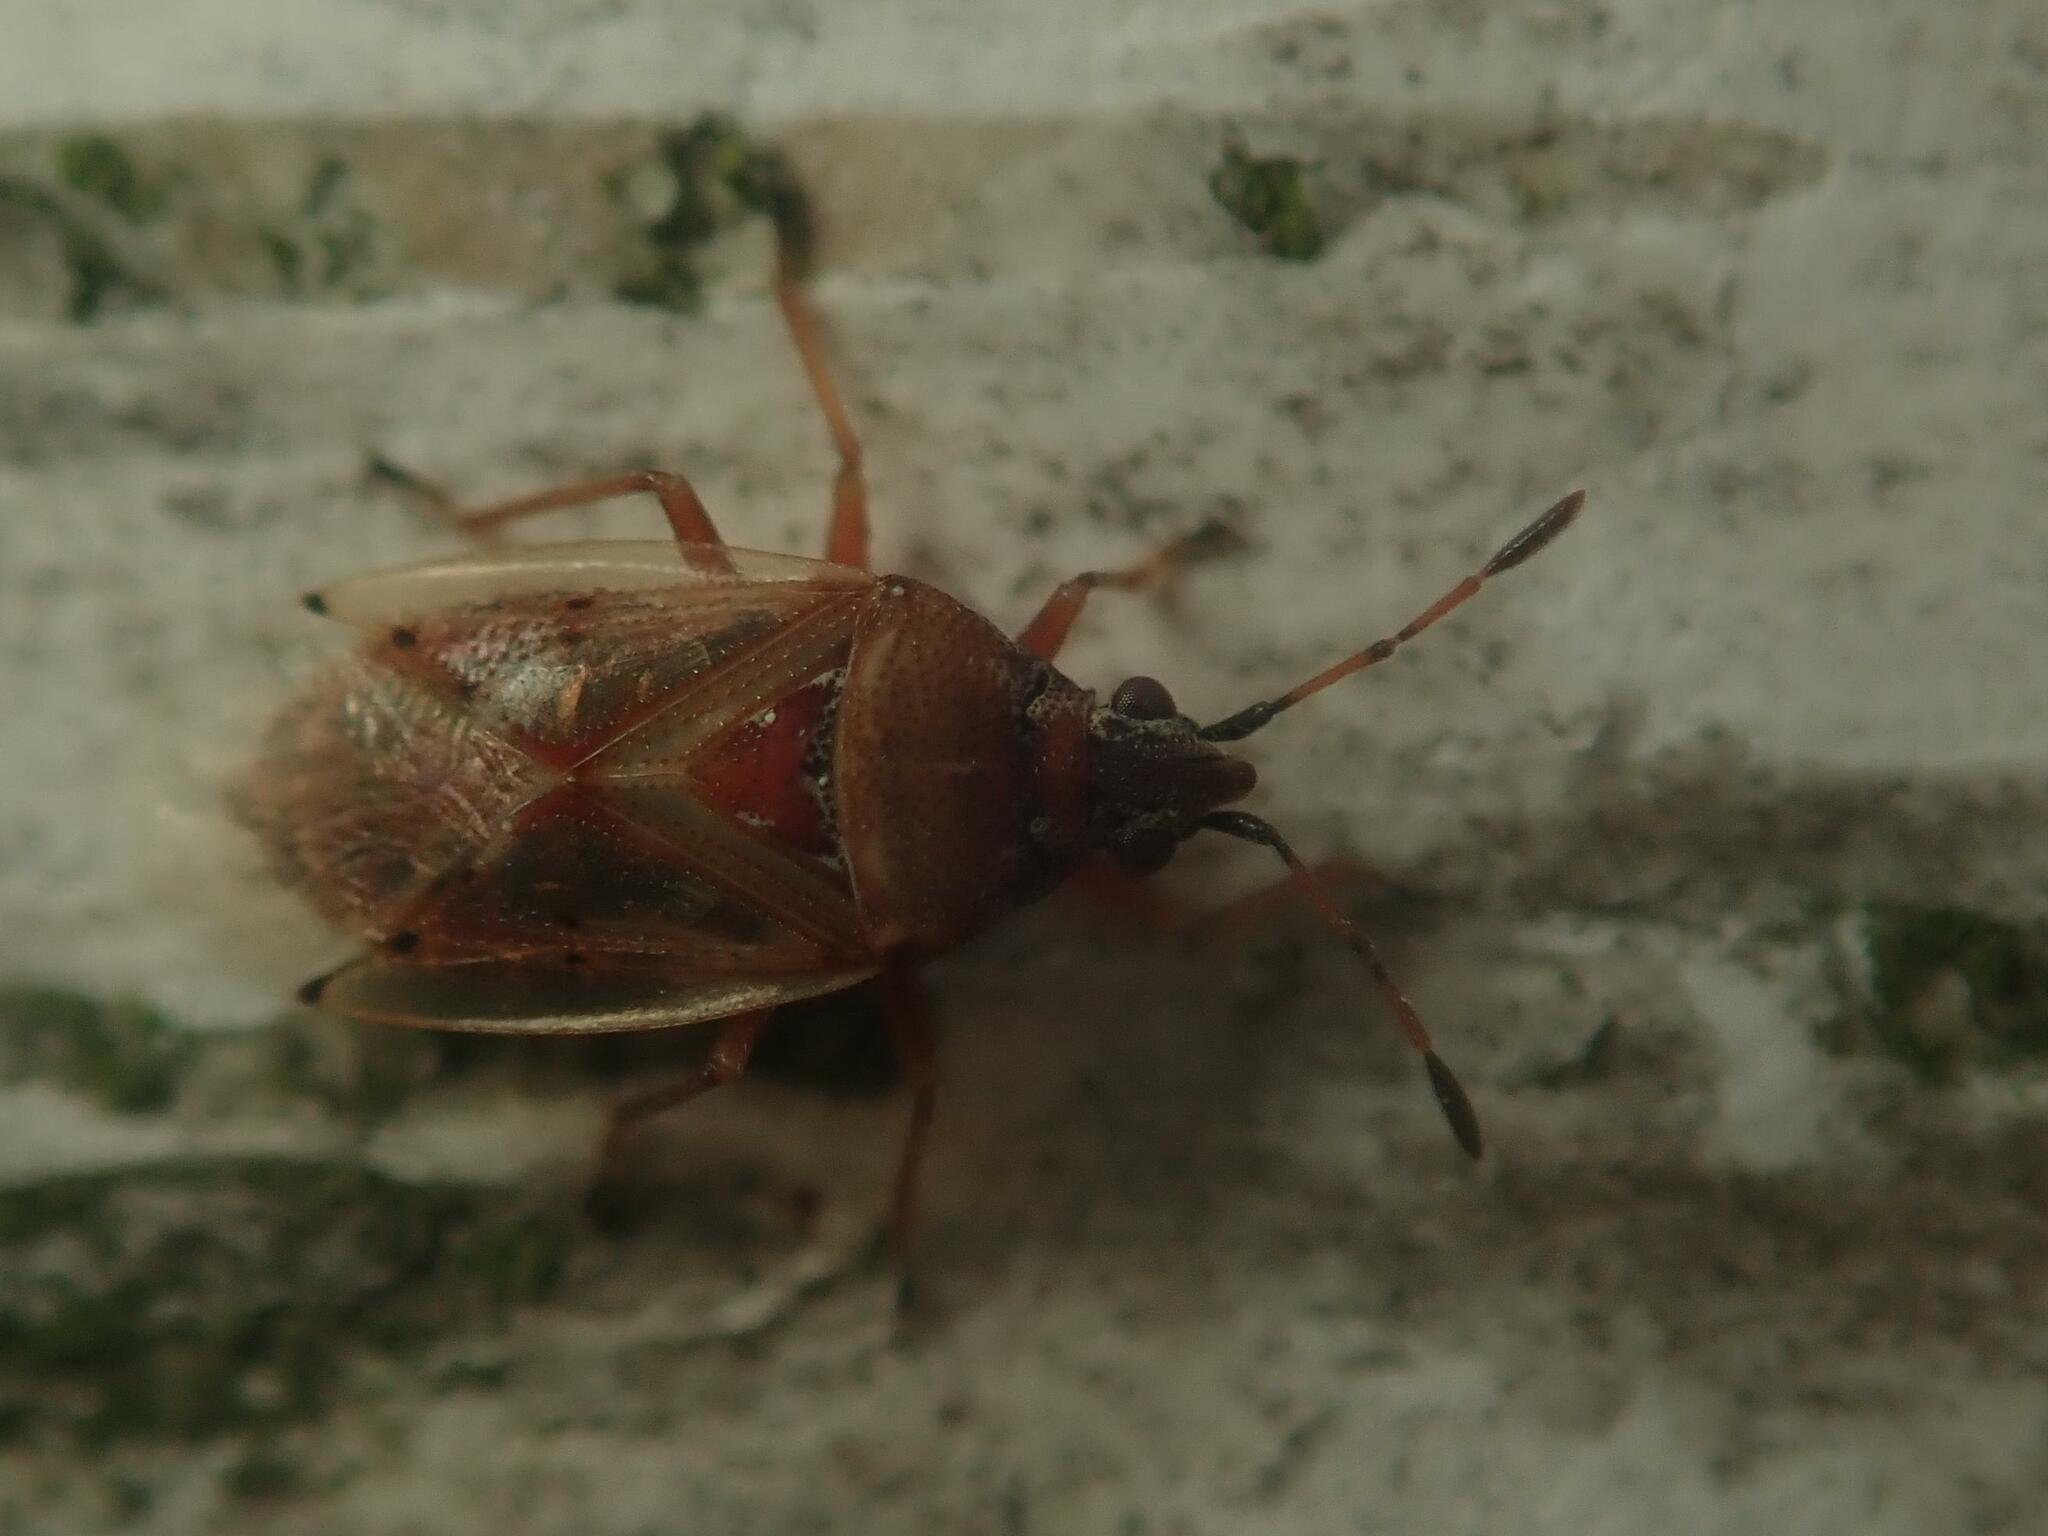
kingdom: Animalia
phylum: Arthropoda
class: Insecta
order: Hemiptera
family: Lygaeidae
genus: Kleidocerys
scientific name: Kleidocerys resedae
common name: Birch catkin bug
